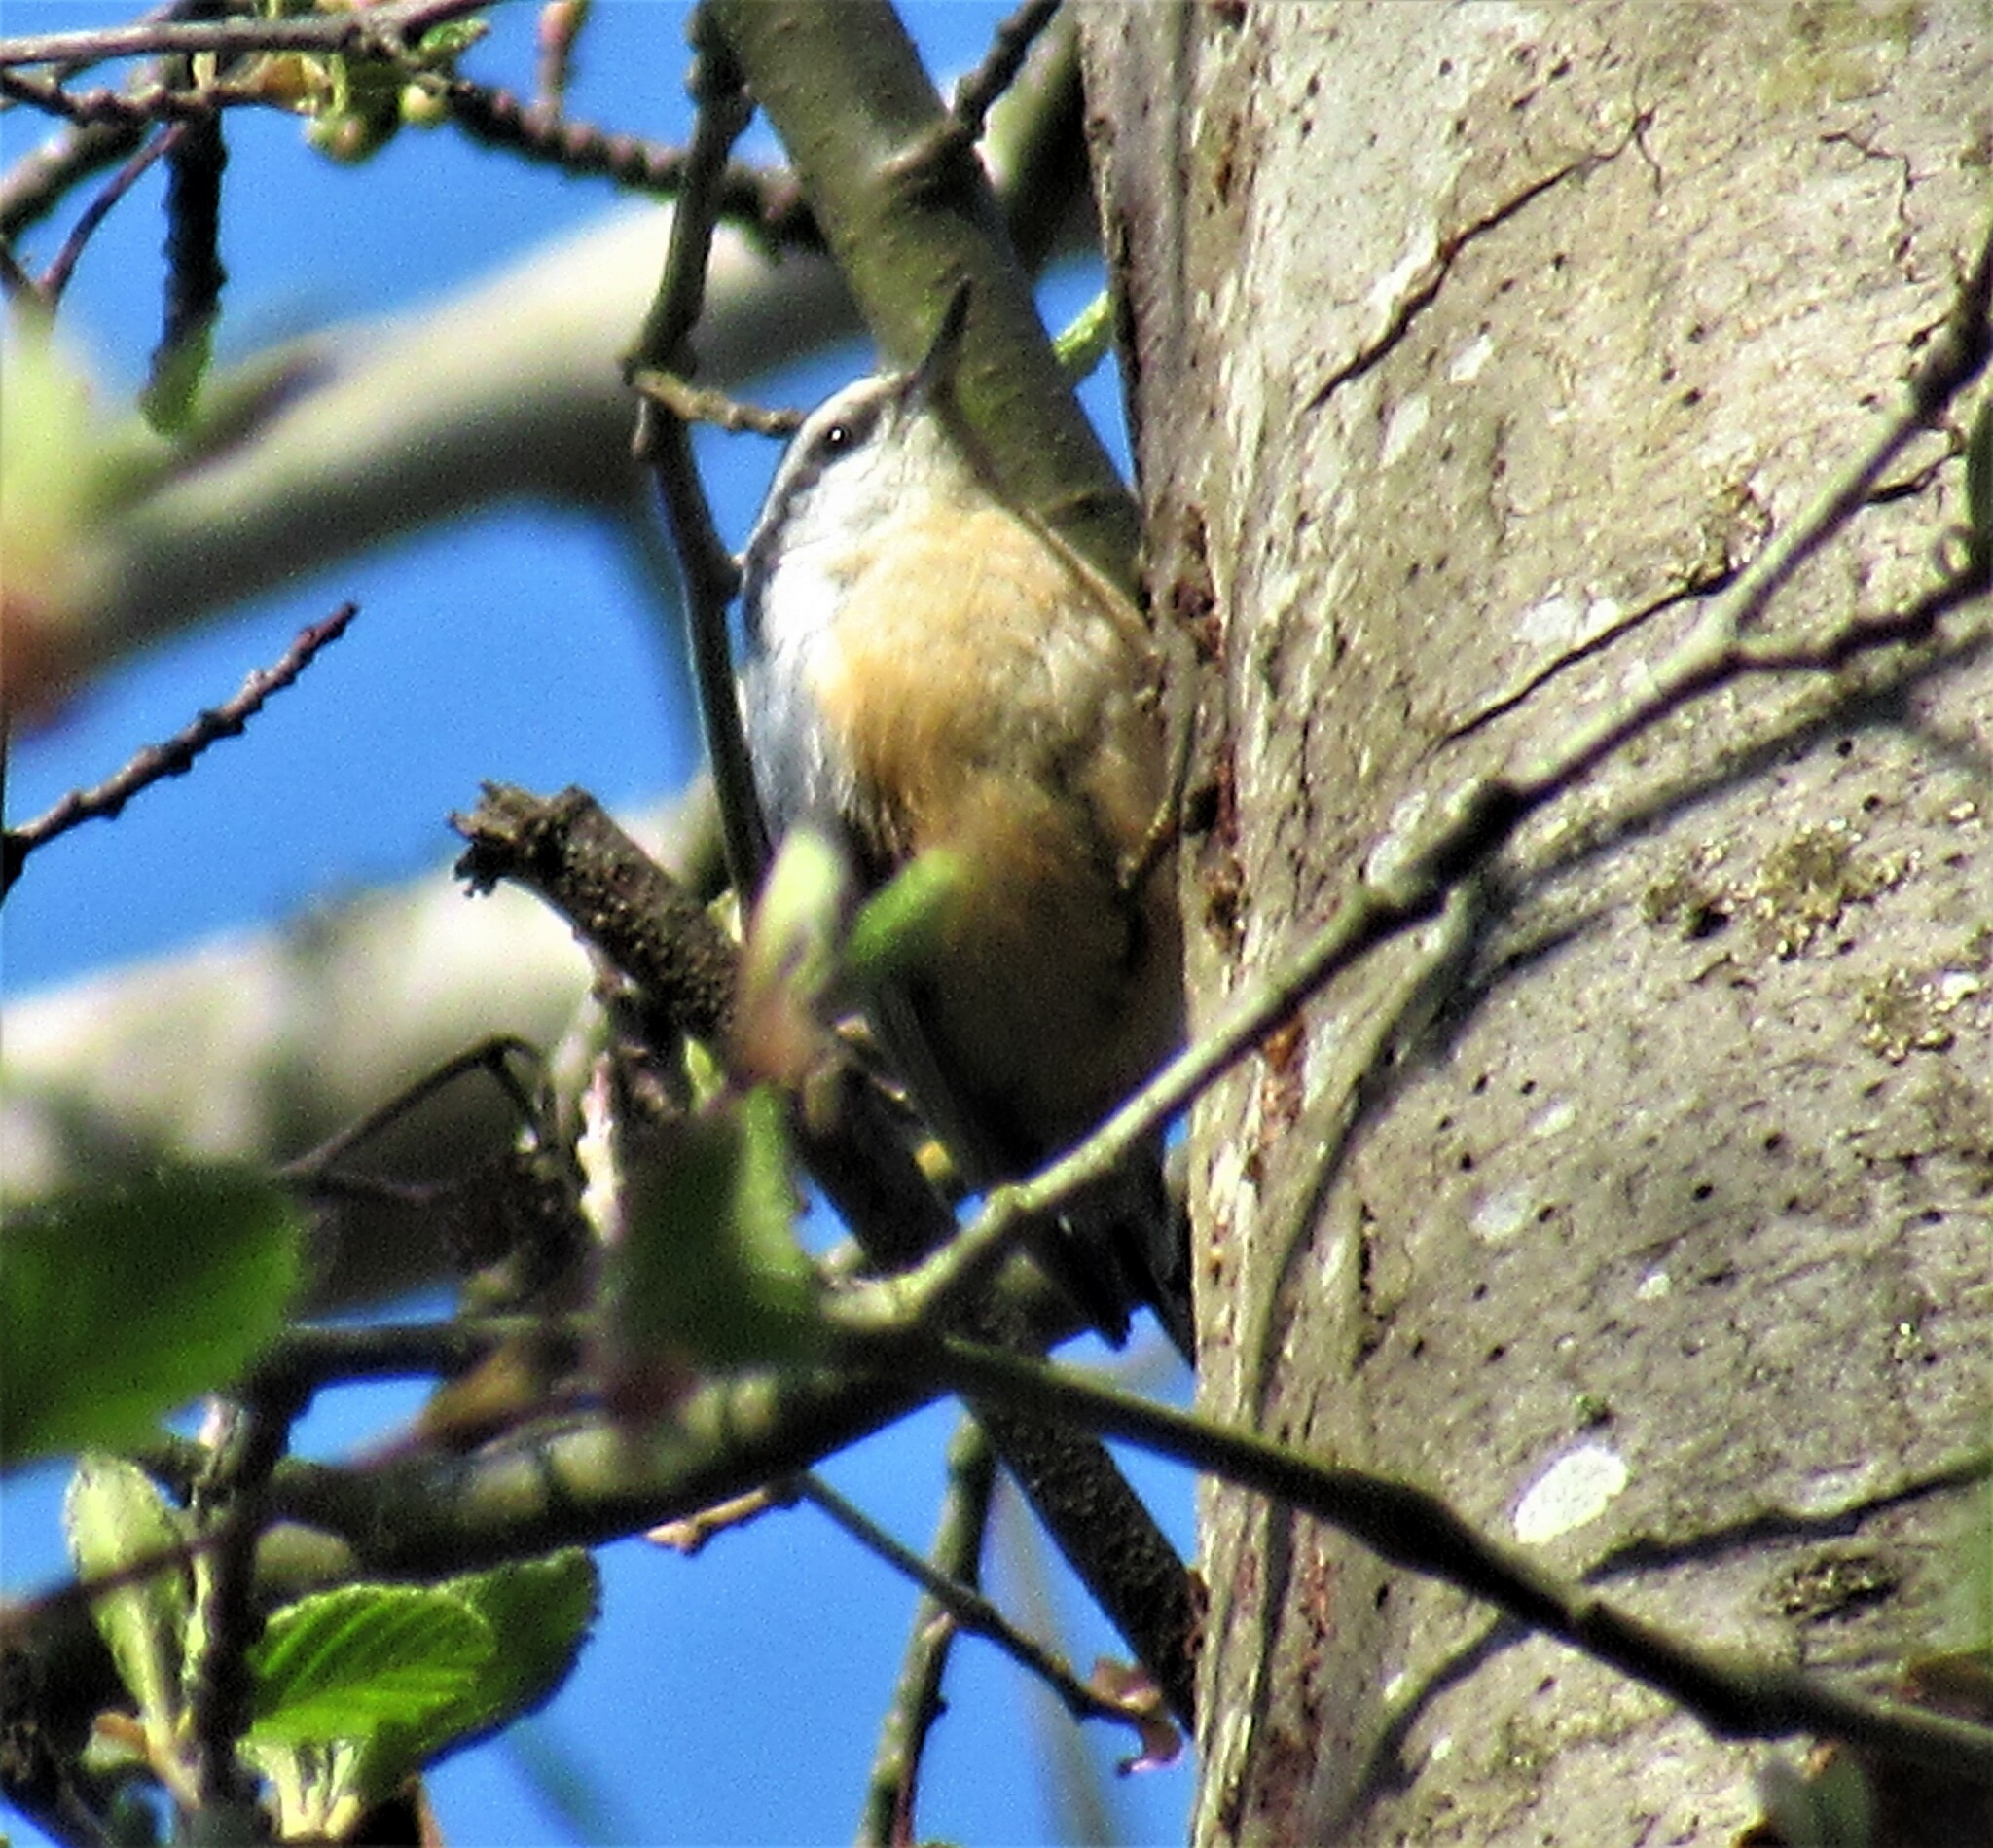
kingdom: Animalia
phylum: Chordata
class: Aves
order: Passeriformes
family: Sittidae
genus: Sitta
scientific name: Sitta canadensis
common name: Red-breasted nuthatch
